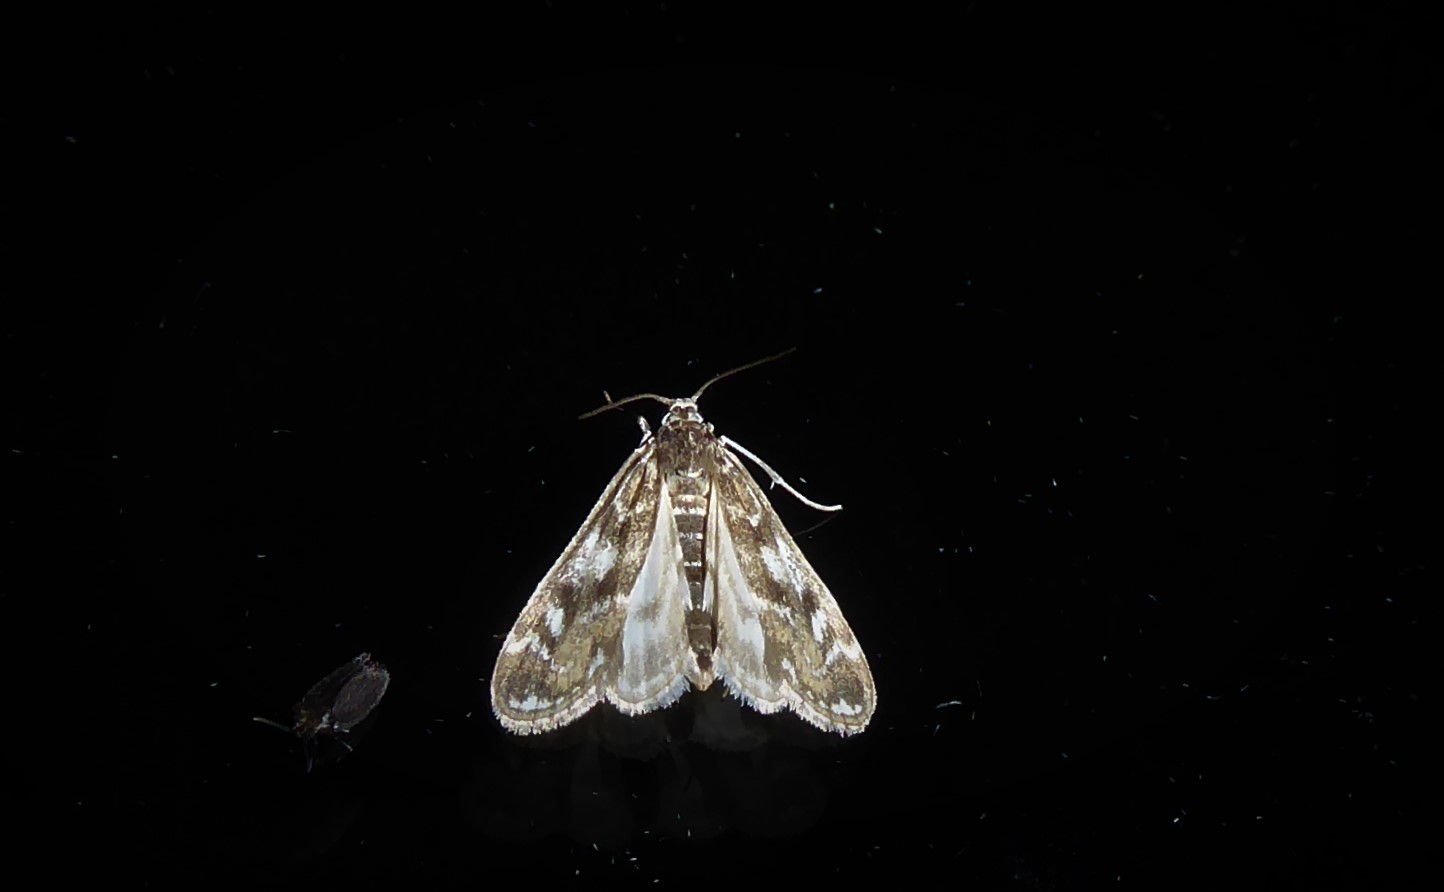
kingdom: Animalia
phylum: Arthropoda
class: Insecta
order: Lepidoptera
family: Crambidae
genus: Hygraula
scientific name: Hygraula nitens
